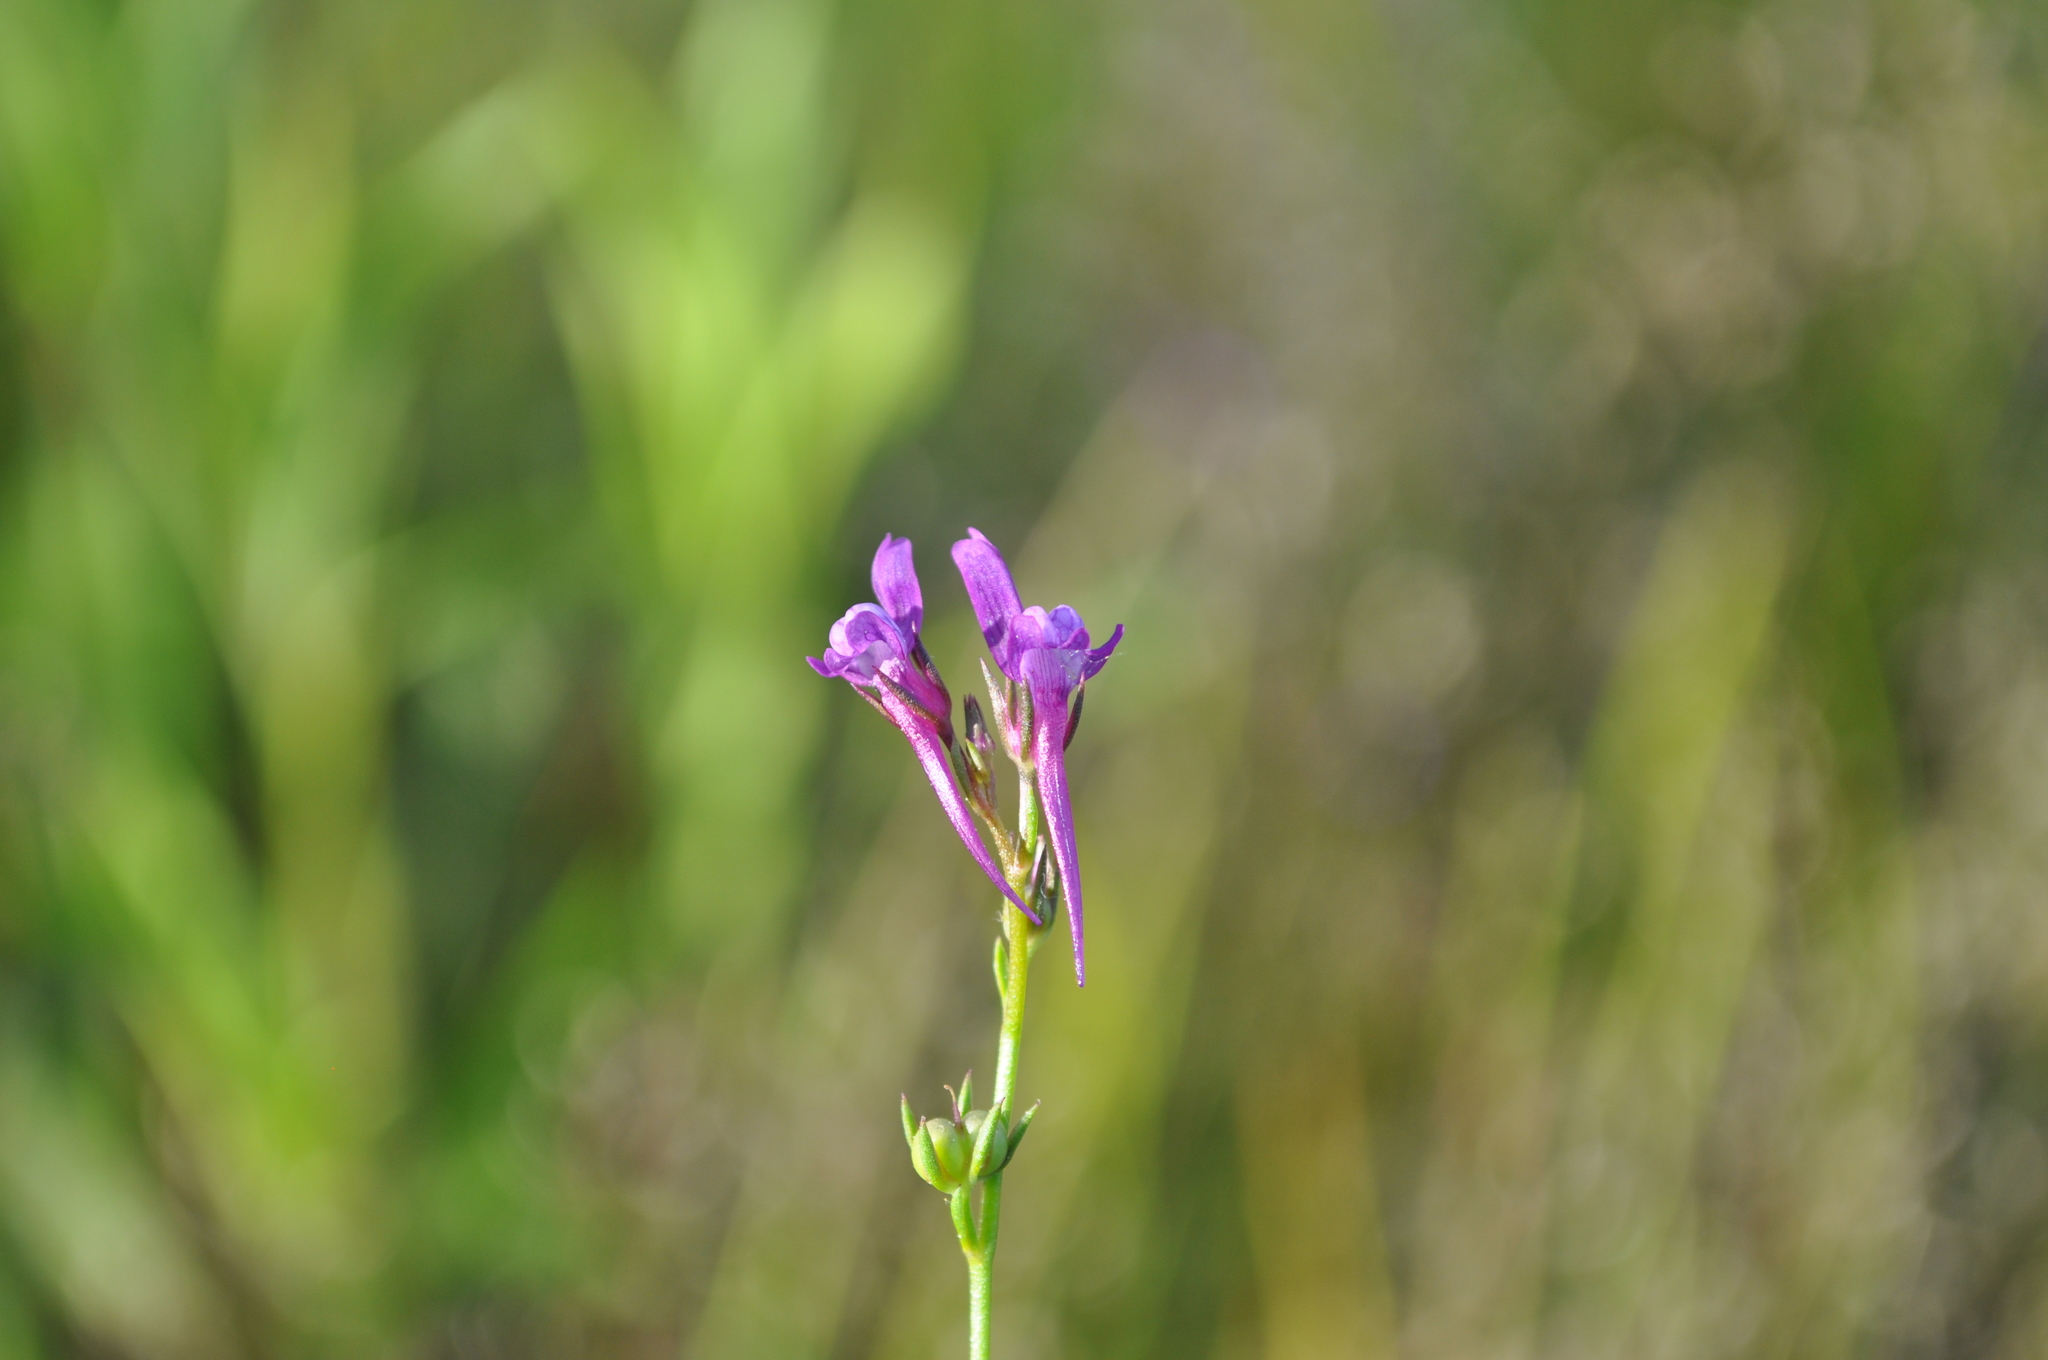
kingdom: Plantae
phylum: Tracheophyta
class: Magnoliopsida
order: Lamiales
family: Plantaginaceae
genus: Linaria
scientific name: Linaria pelisseriana
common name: Jersey toadflax
